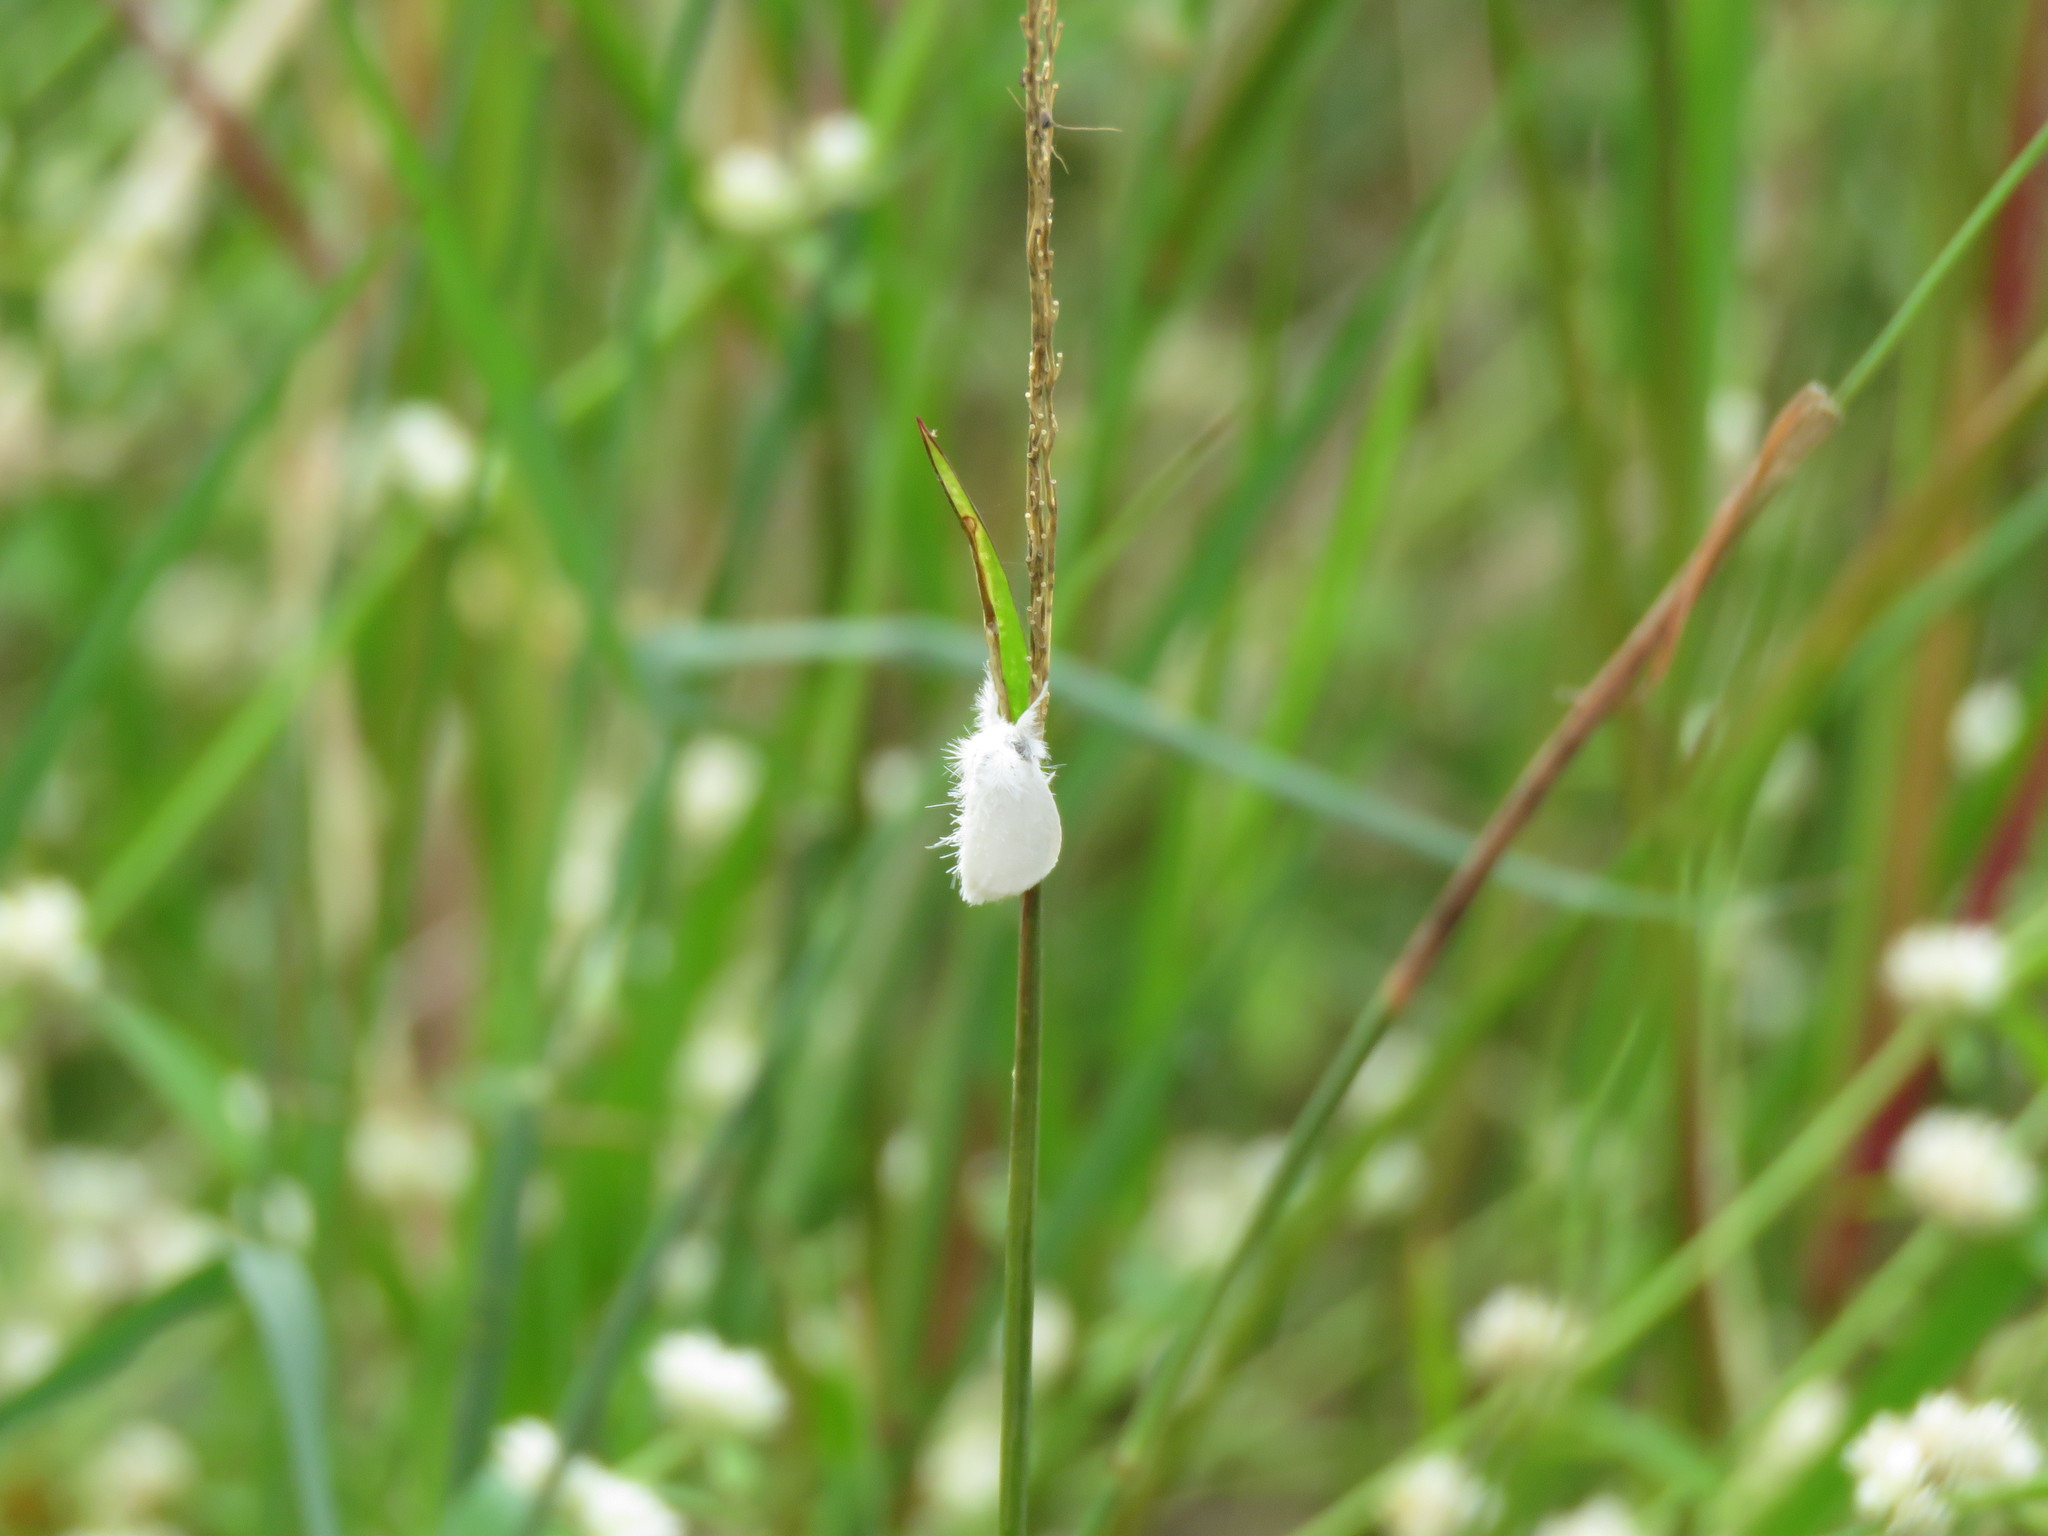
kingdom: Animalia
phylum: Arthropoda
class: Insecta
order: Lepidoptera
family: Erebidae
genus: Sphrageidus
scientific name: Sphrageidus similis
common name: Yellow-tail
